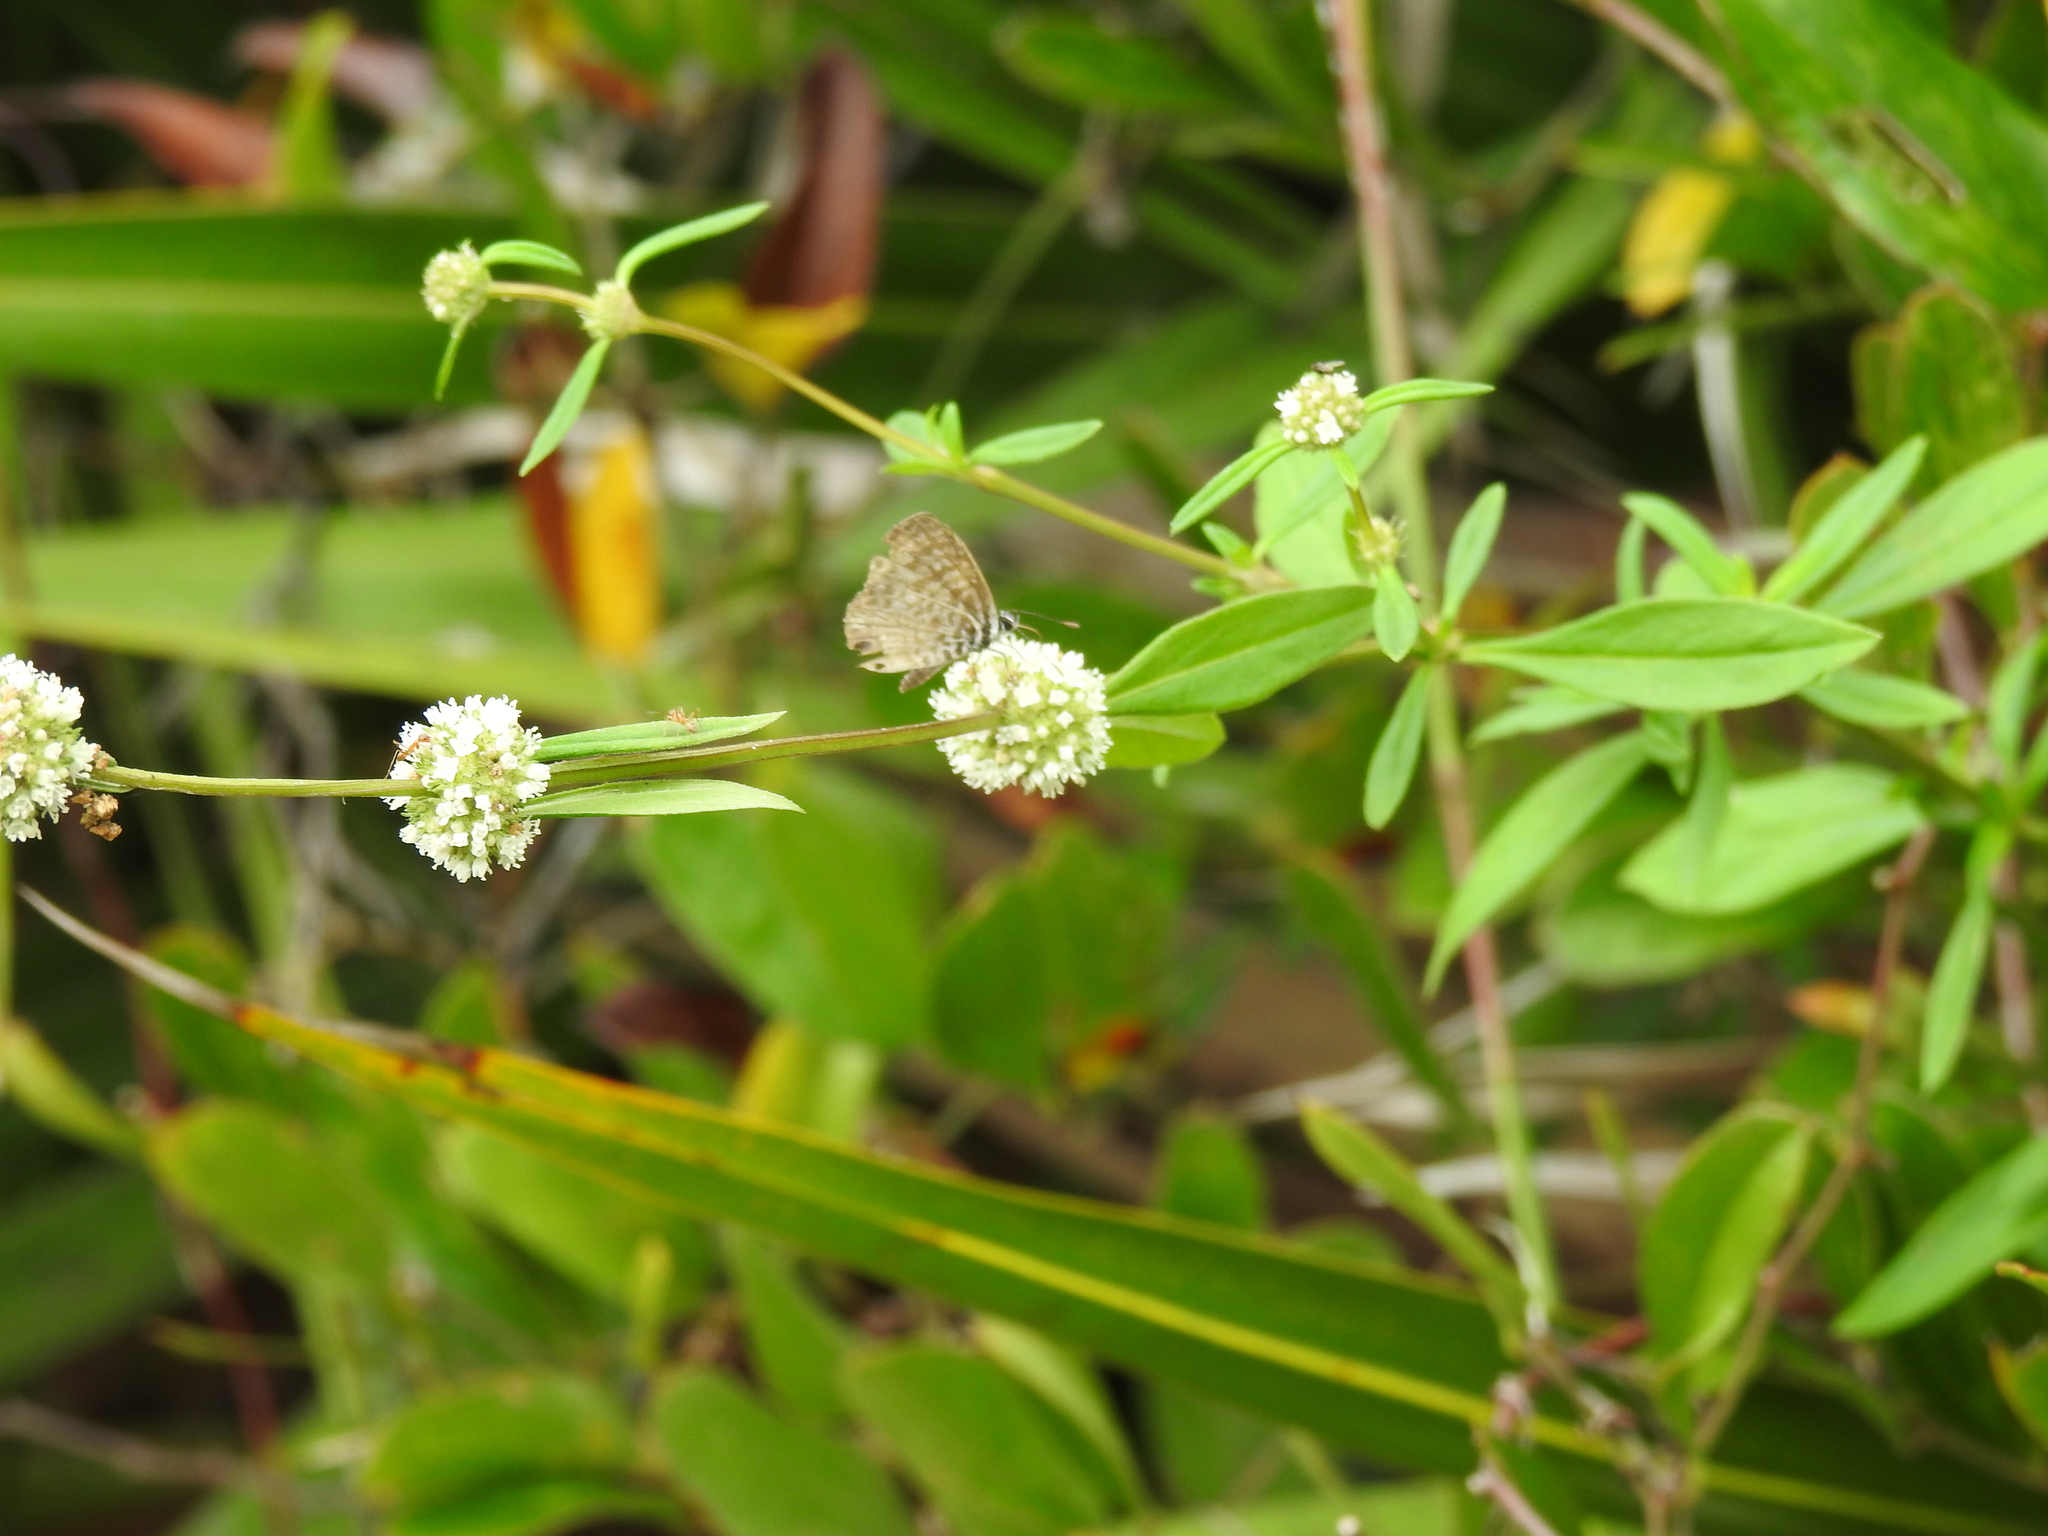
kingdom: Animalia
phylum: Arthropoda
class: Insecta
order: Lepidoptera
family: Lycaenidae
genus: Leptotes
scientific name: Leptotes cassius
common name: Cassius blue
